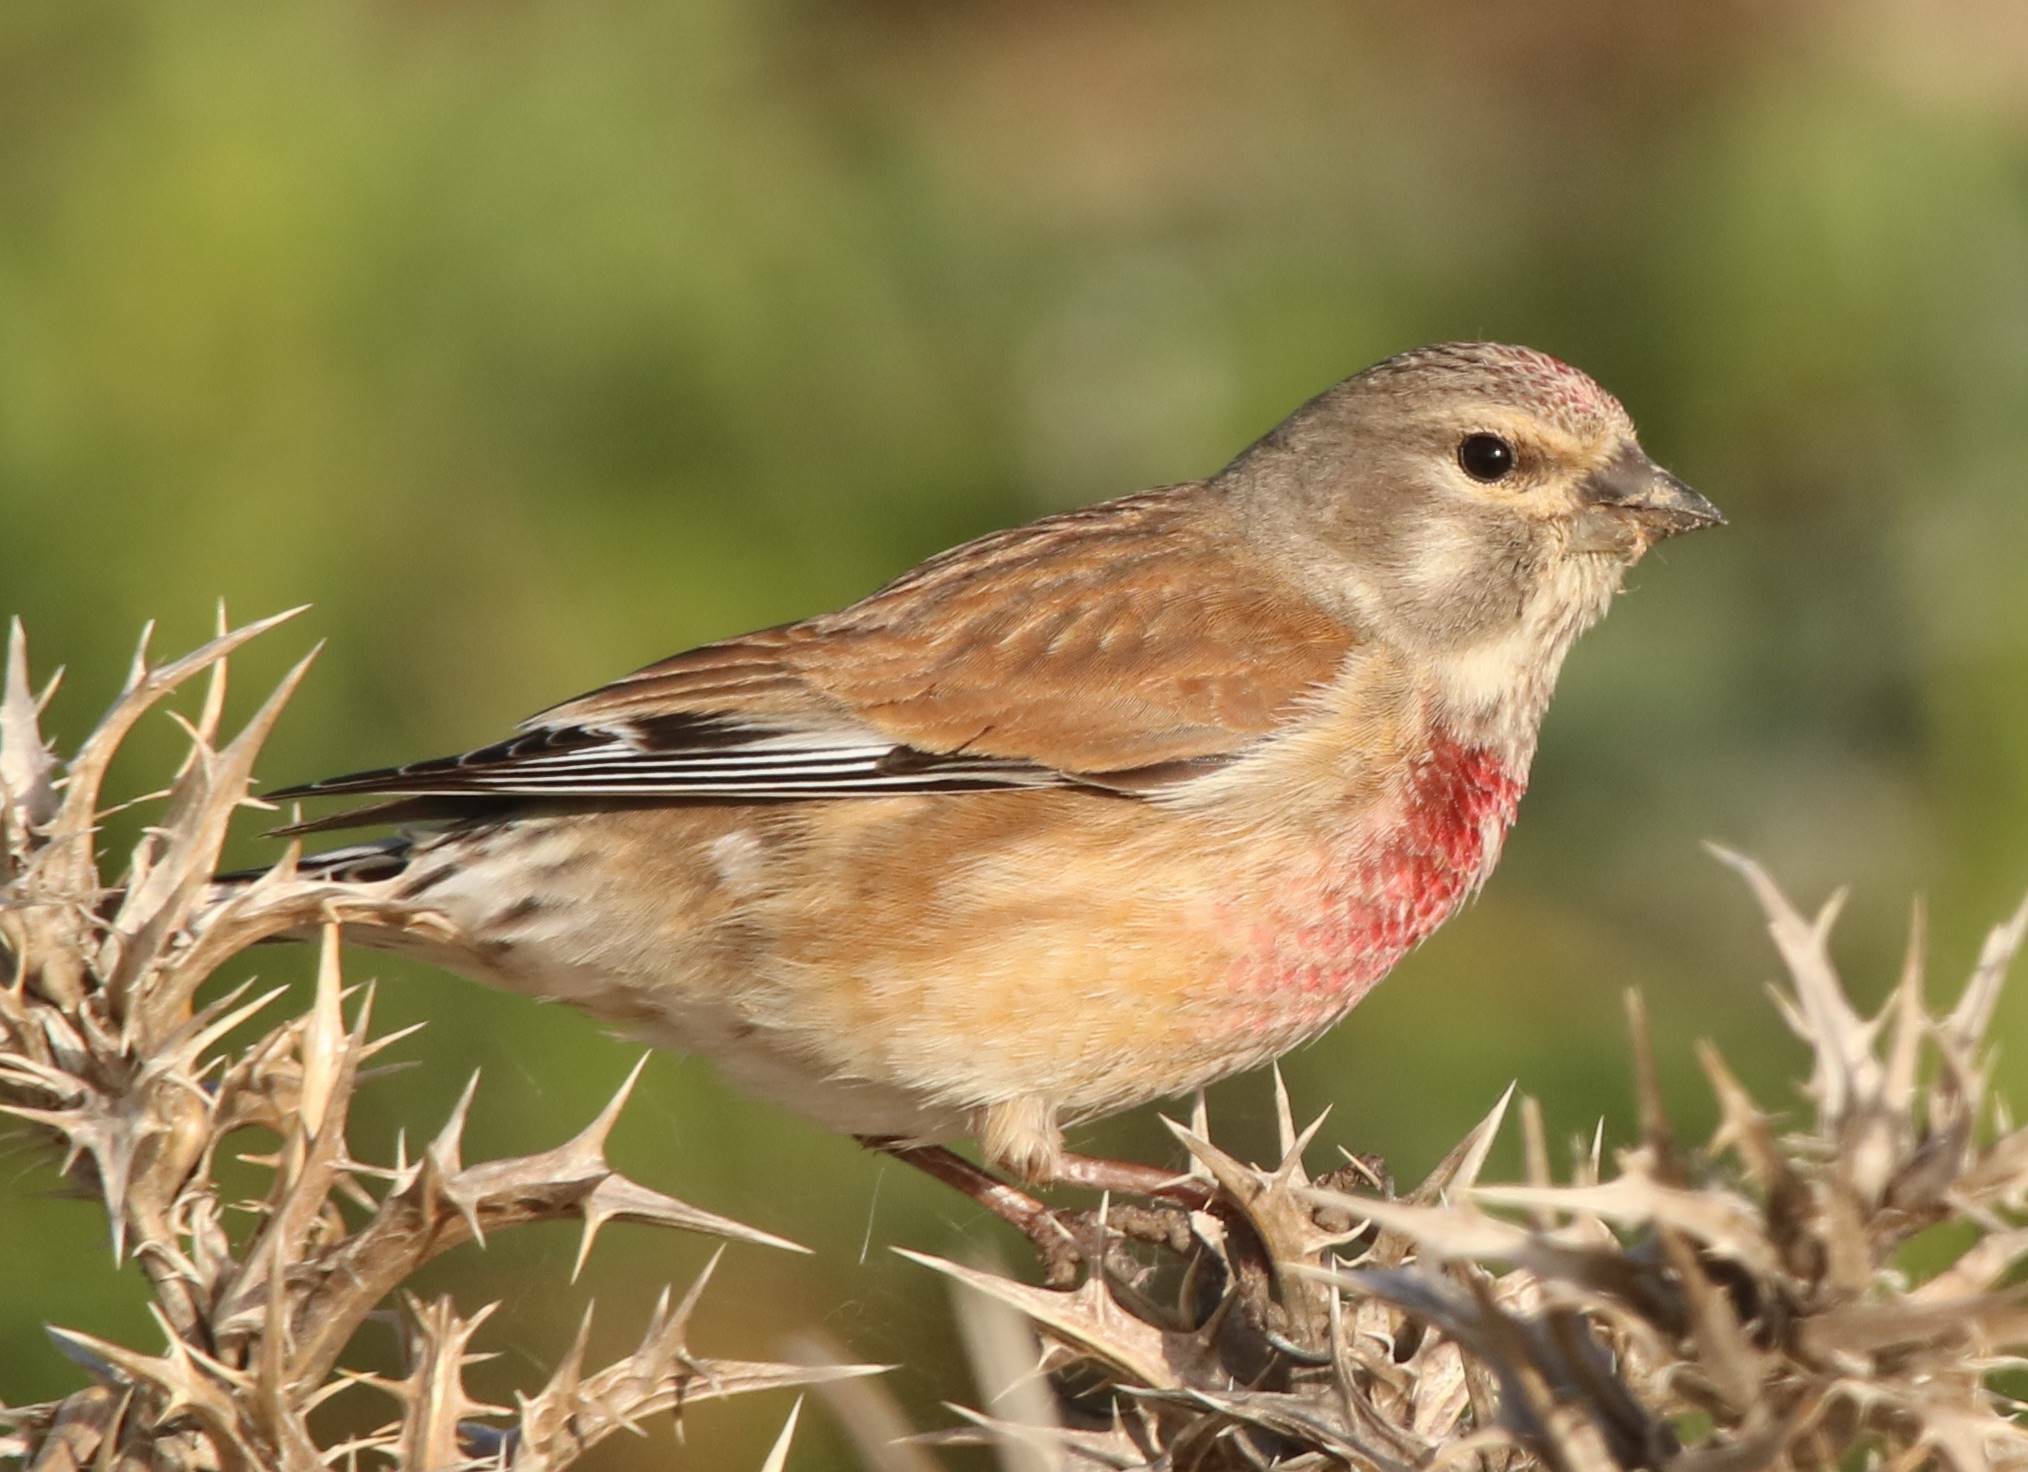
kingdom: Animalia
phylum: Chordata
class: Aves
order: Passeriformes
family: Fringillidae
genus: Linaria
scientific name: Linaria cannabina
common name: Common linnet
